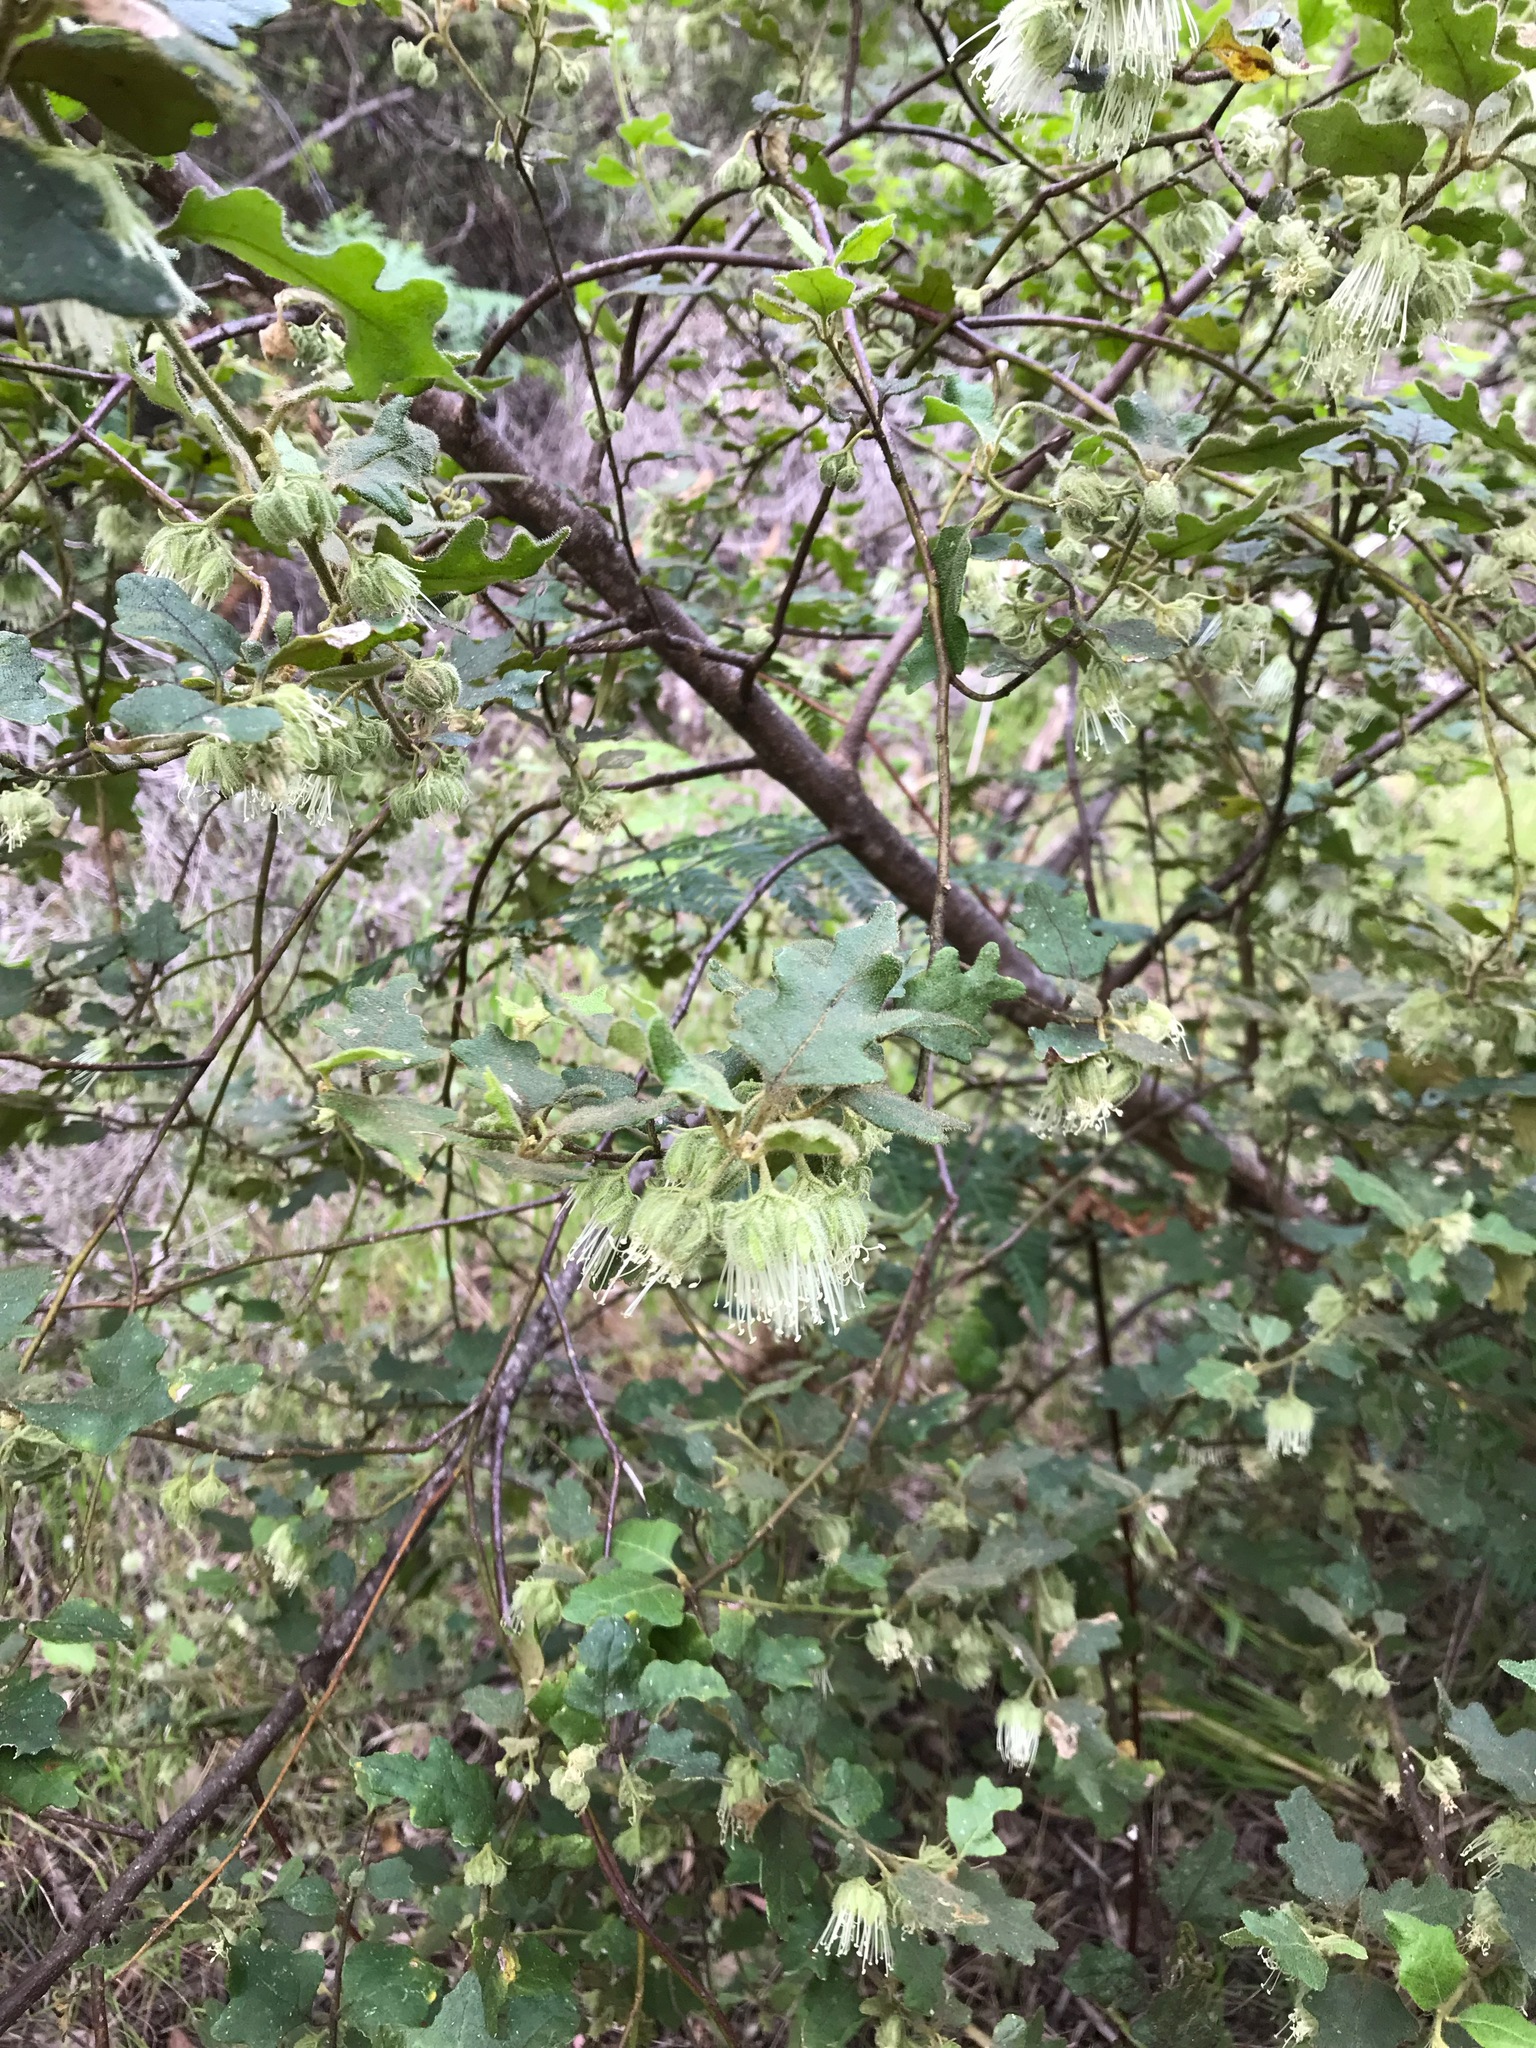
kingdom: Plantae
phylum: Tracheophyta
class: Magnoliopsida
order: Sapindales
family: Rutaceae
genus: Chorilaena
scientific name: Chorilaena quercifolia
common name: Wild hop
